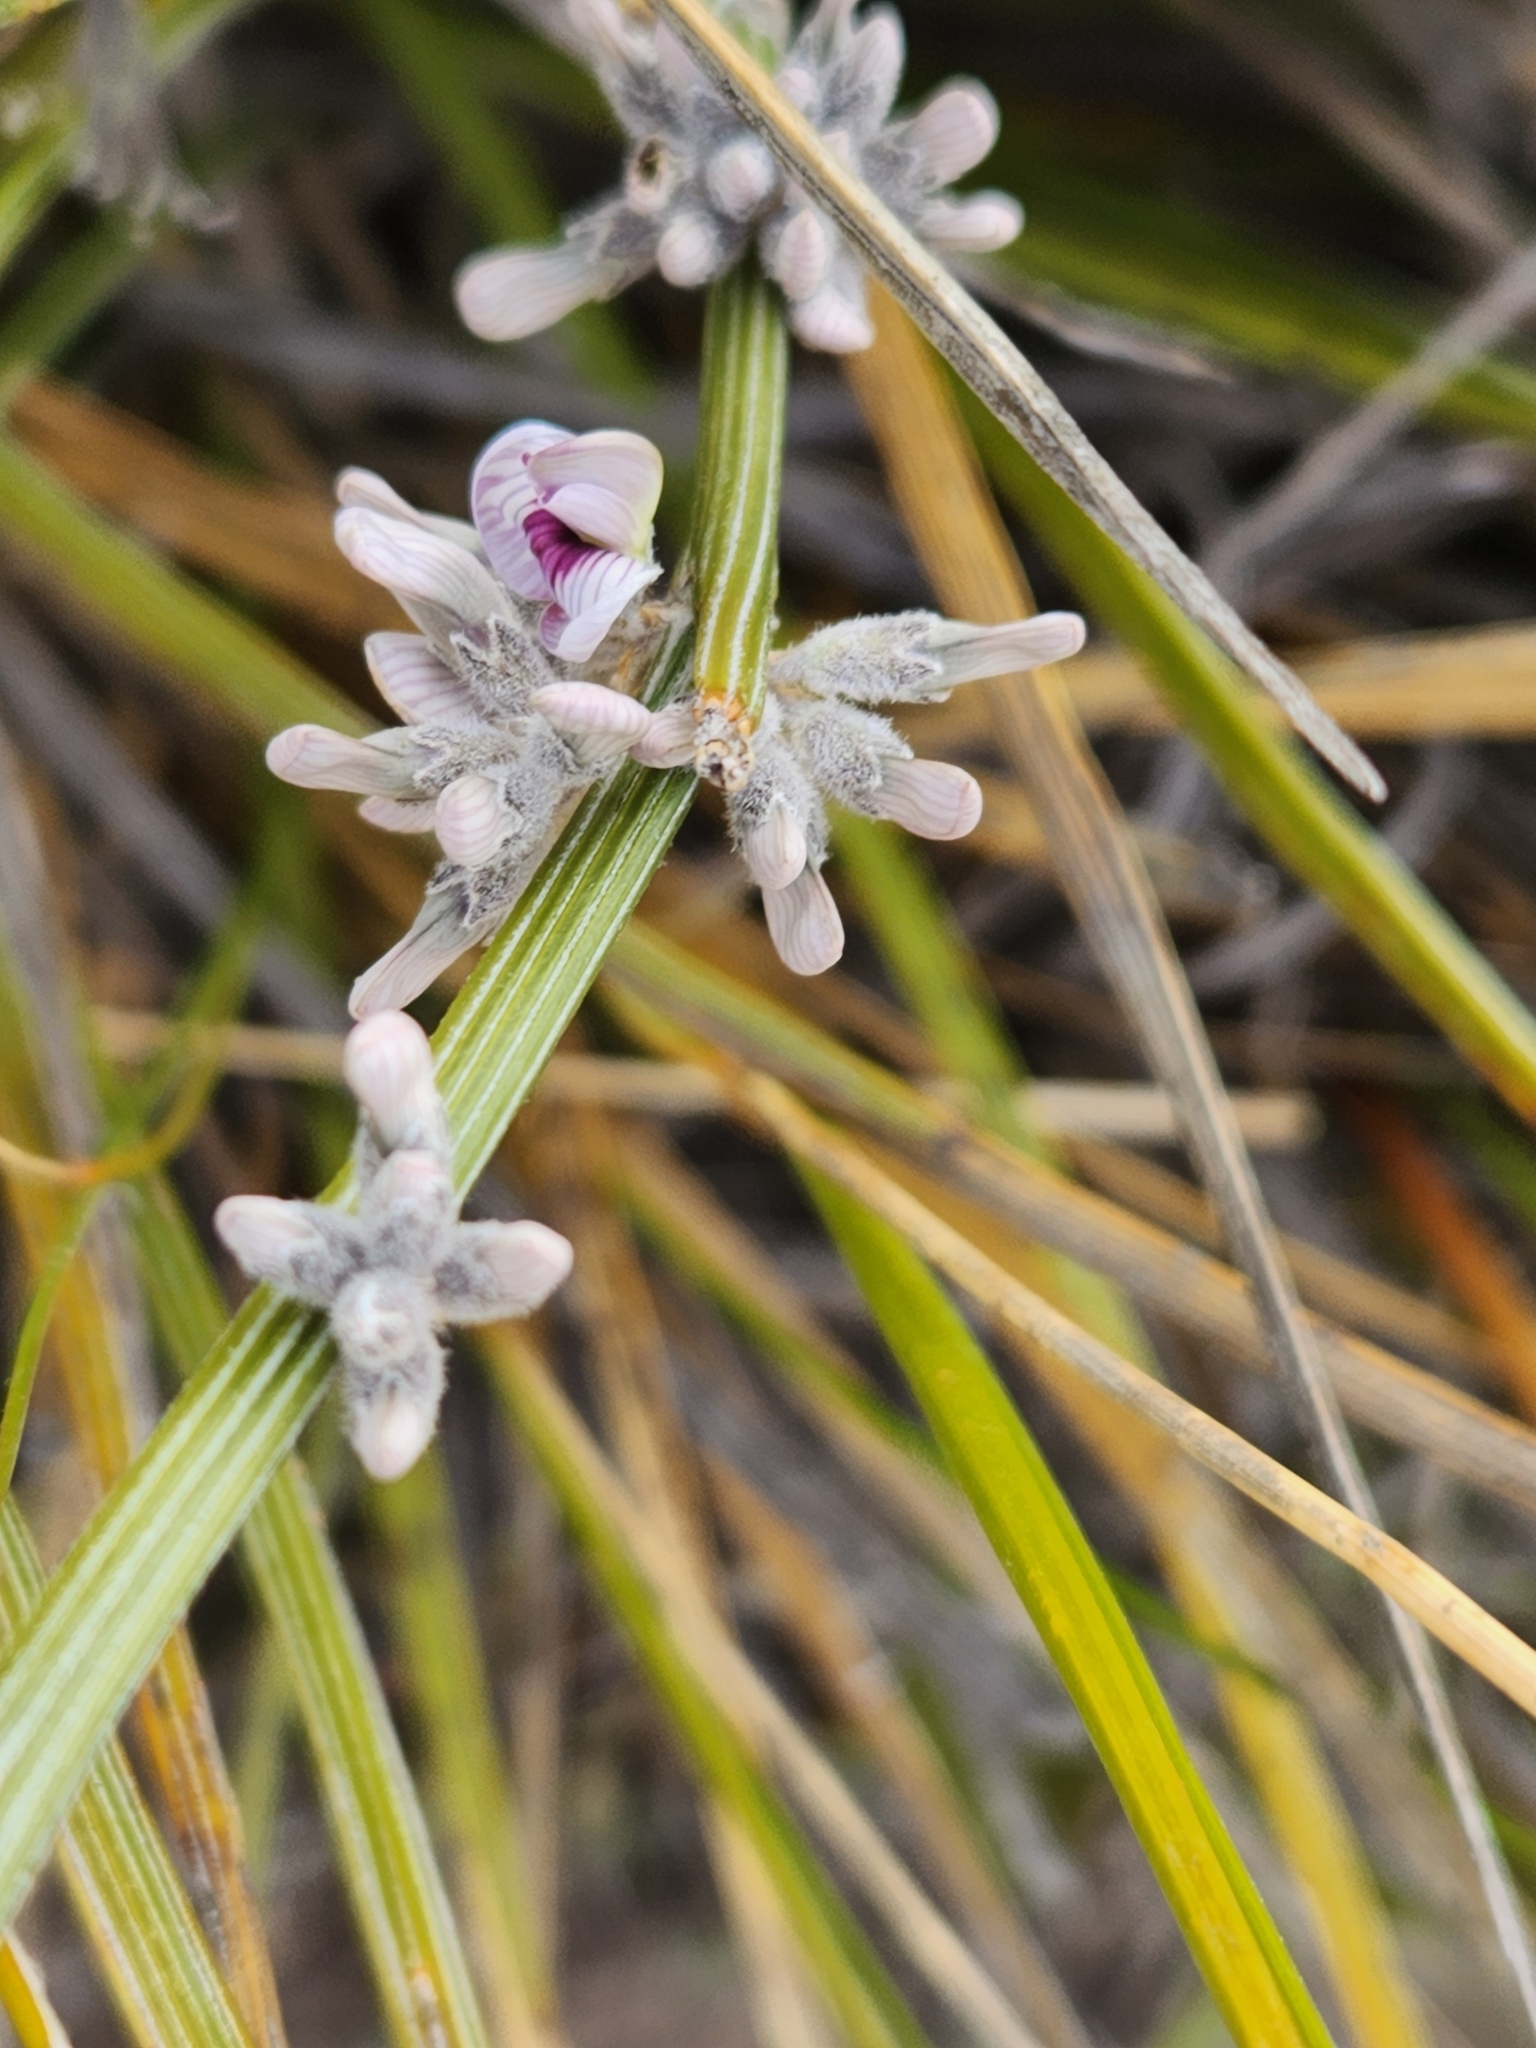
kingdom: Plantae
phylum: Tracheophyta
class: Magnoliopsida
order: Fabales
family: Fabaceae
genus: Carmichaelia
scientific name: Carmichaelia crassicaulis
